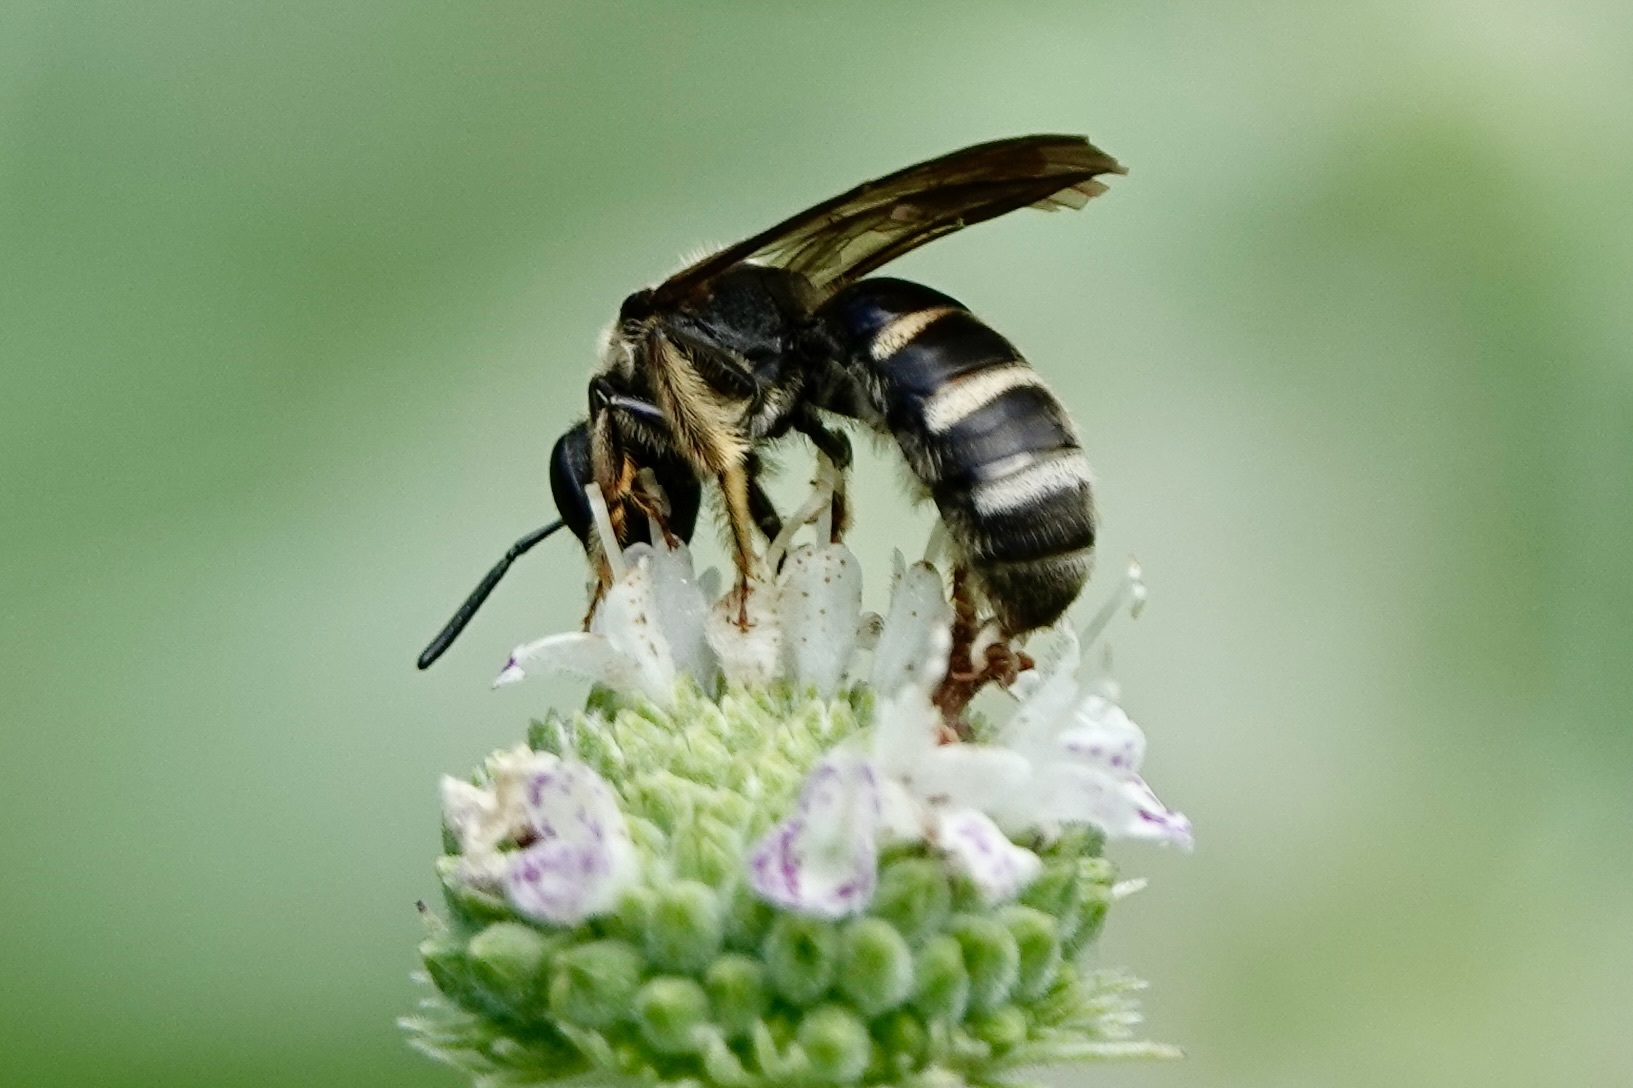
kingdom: Animalia
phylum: Arthropoda
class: Insecta
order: Hymenoptera
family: Halictidae
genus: Lasioglossum
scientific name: Lasioglossum fuscipenne
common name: Brown-winged sweat bee
